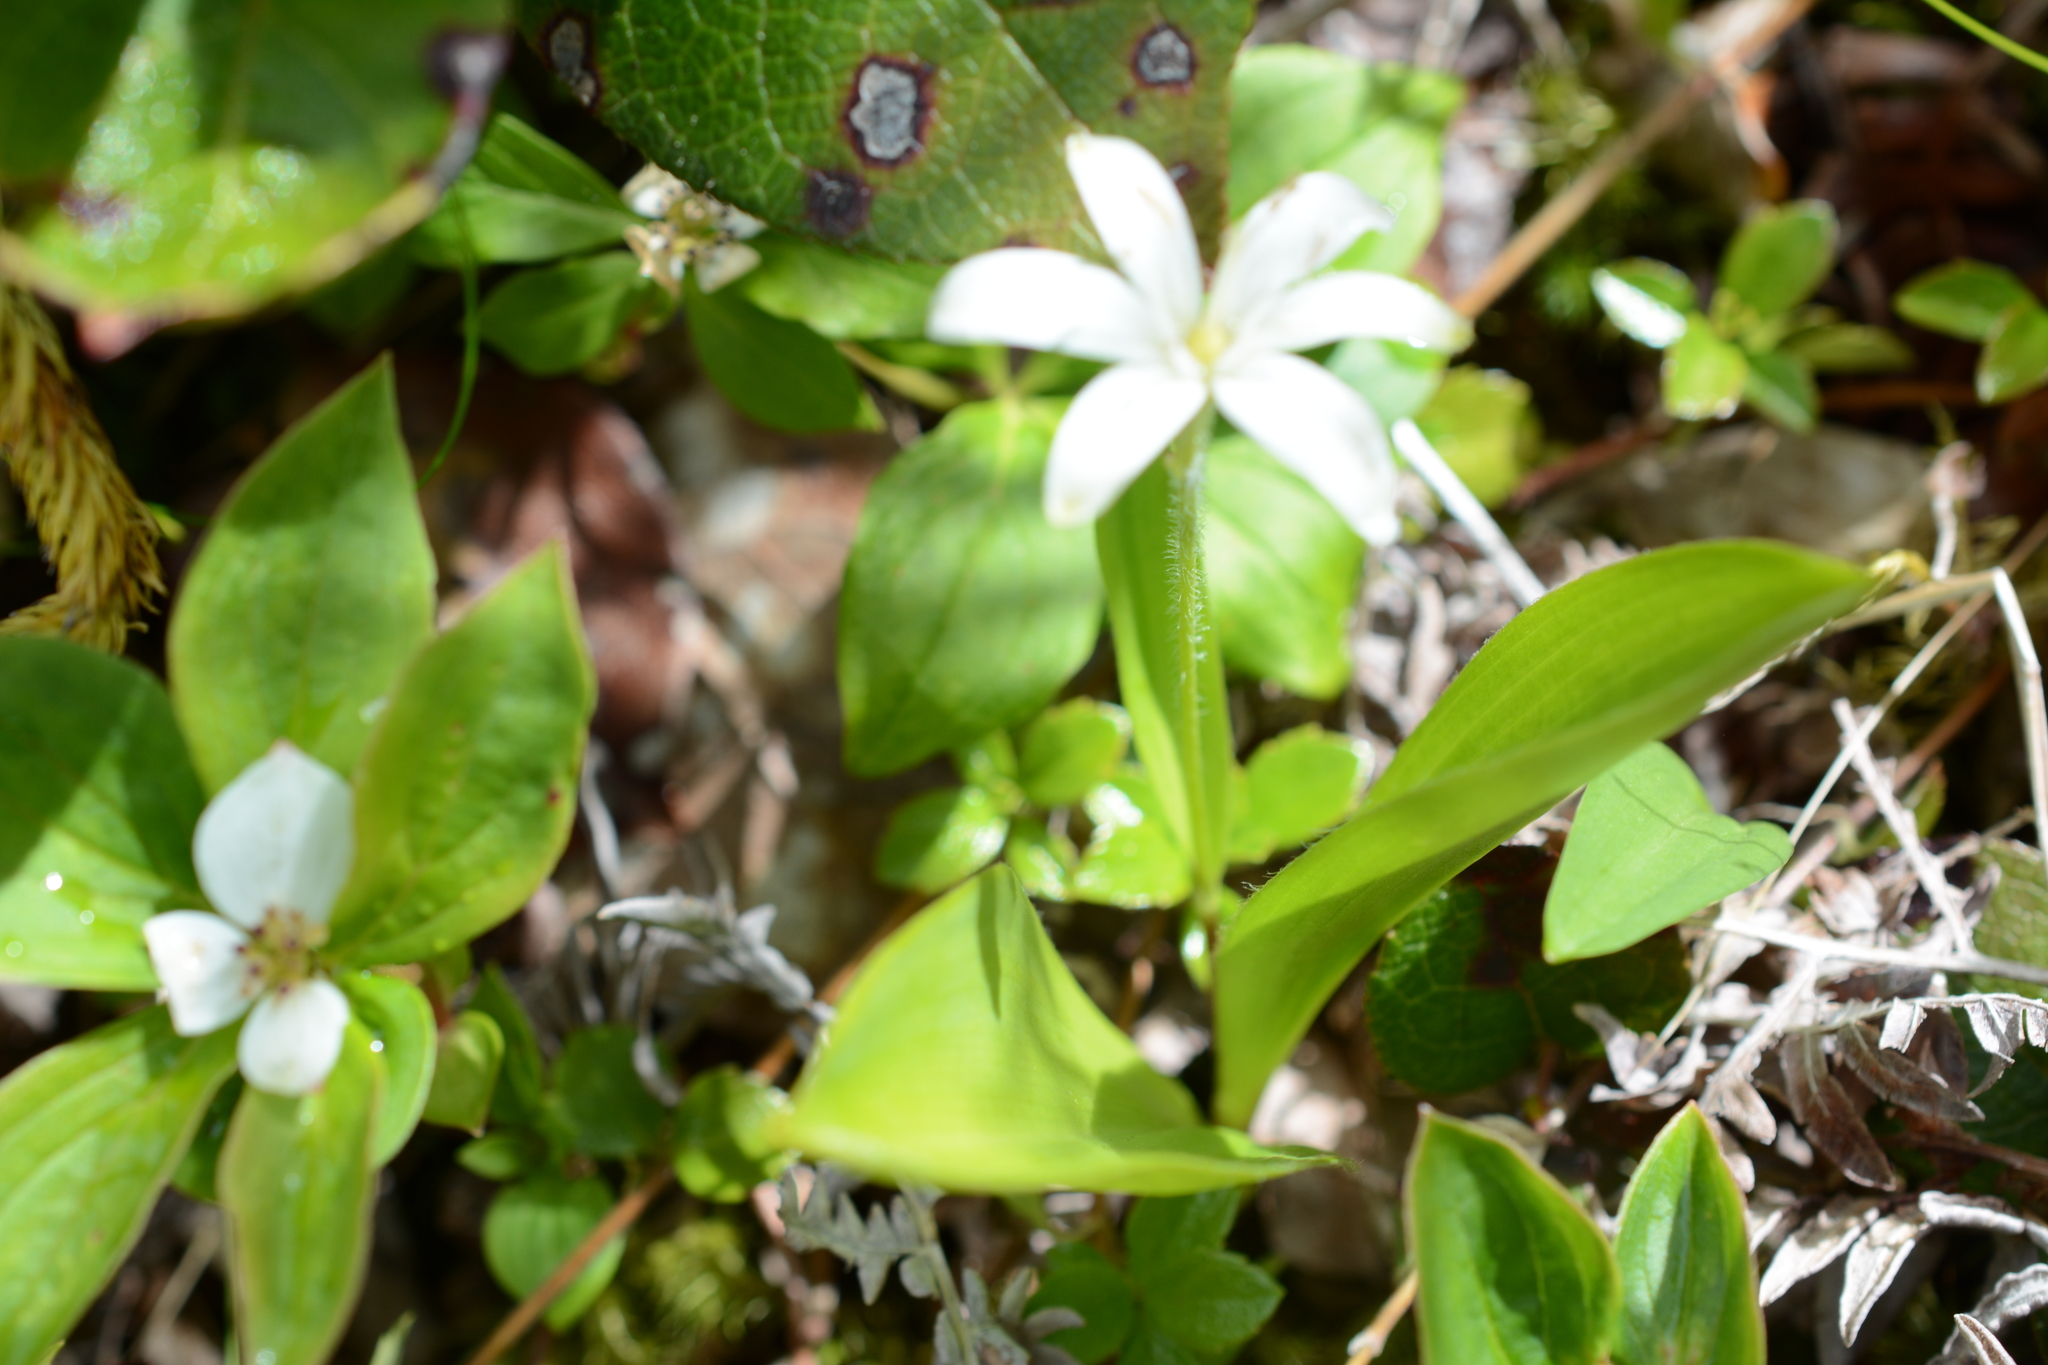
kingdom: Plantae
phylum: Tracheophyta
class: Liliopsida
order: Liliales
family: Liliaceae
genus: Clintonia
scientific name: Clintonia uniflora
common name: Queen's cup
